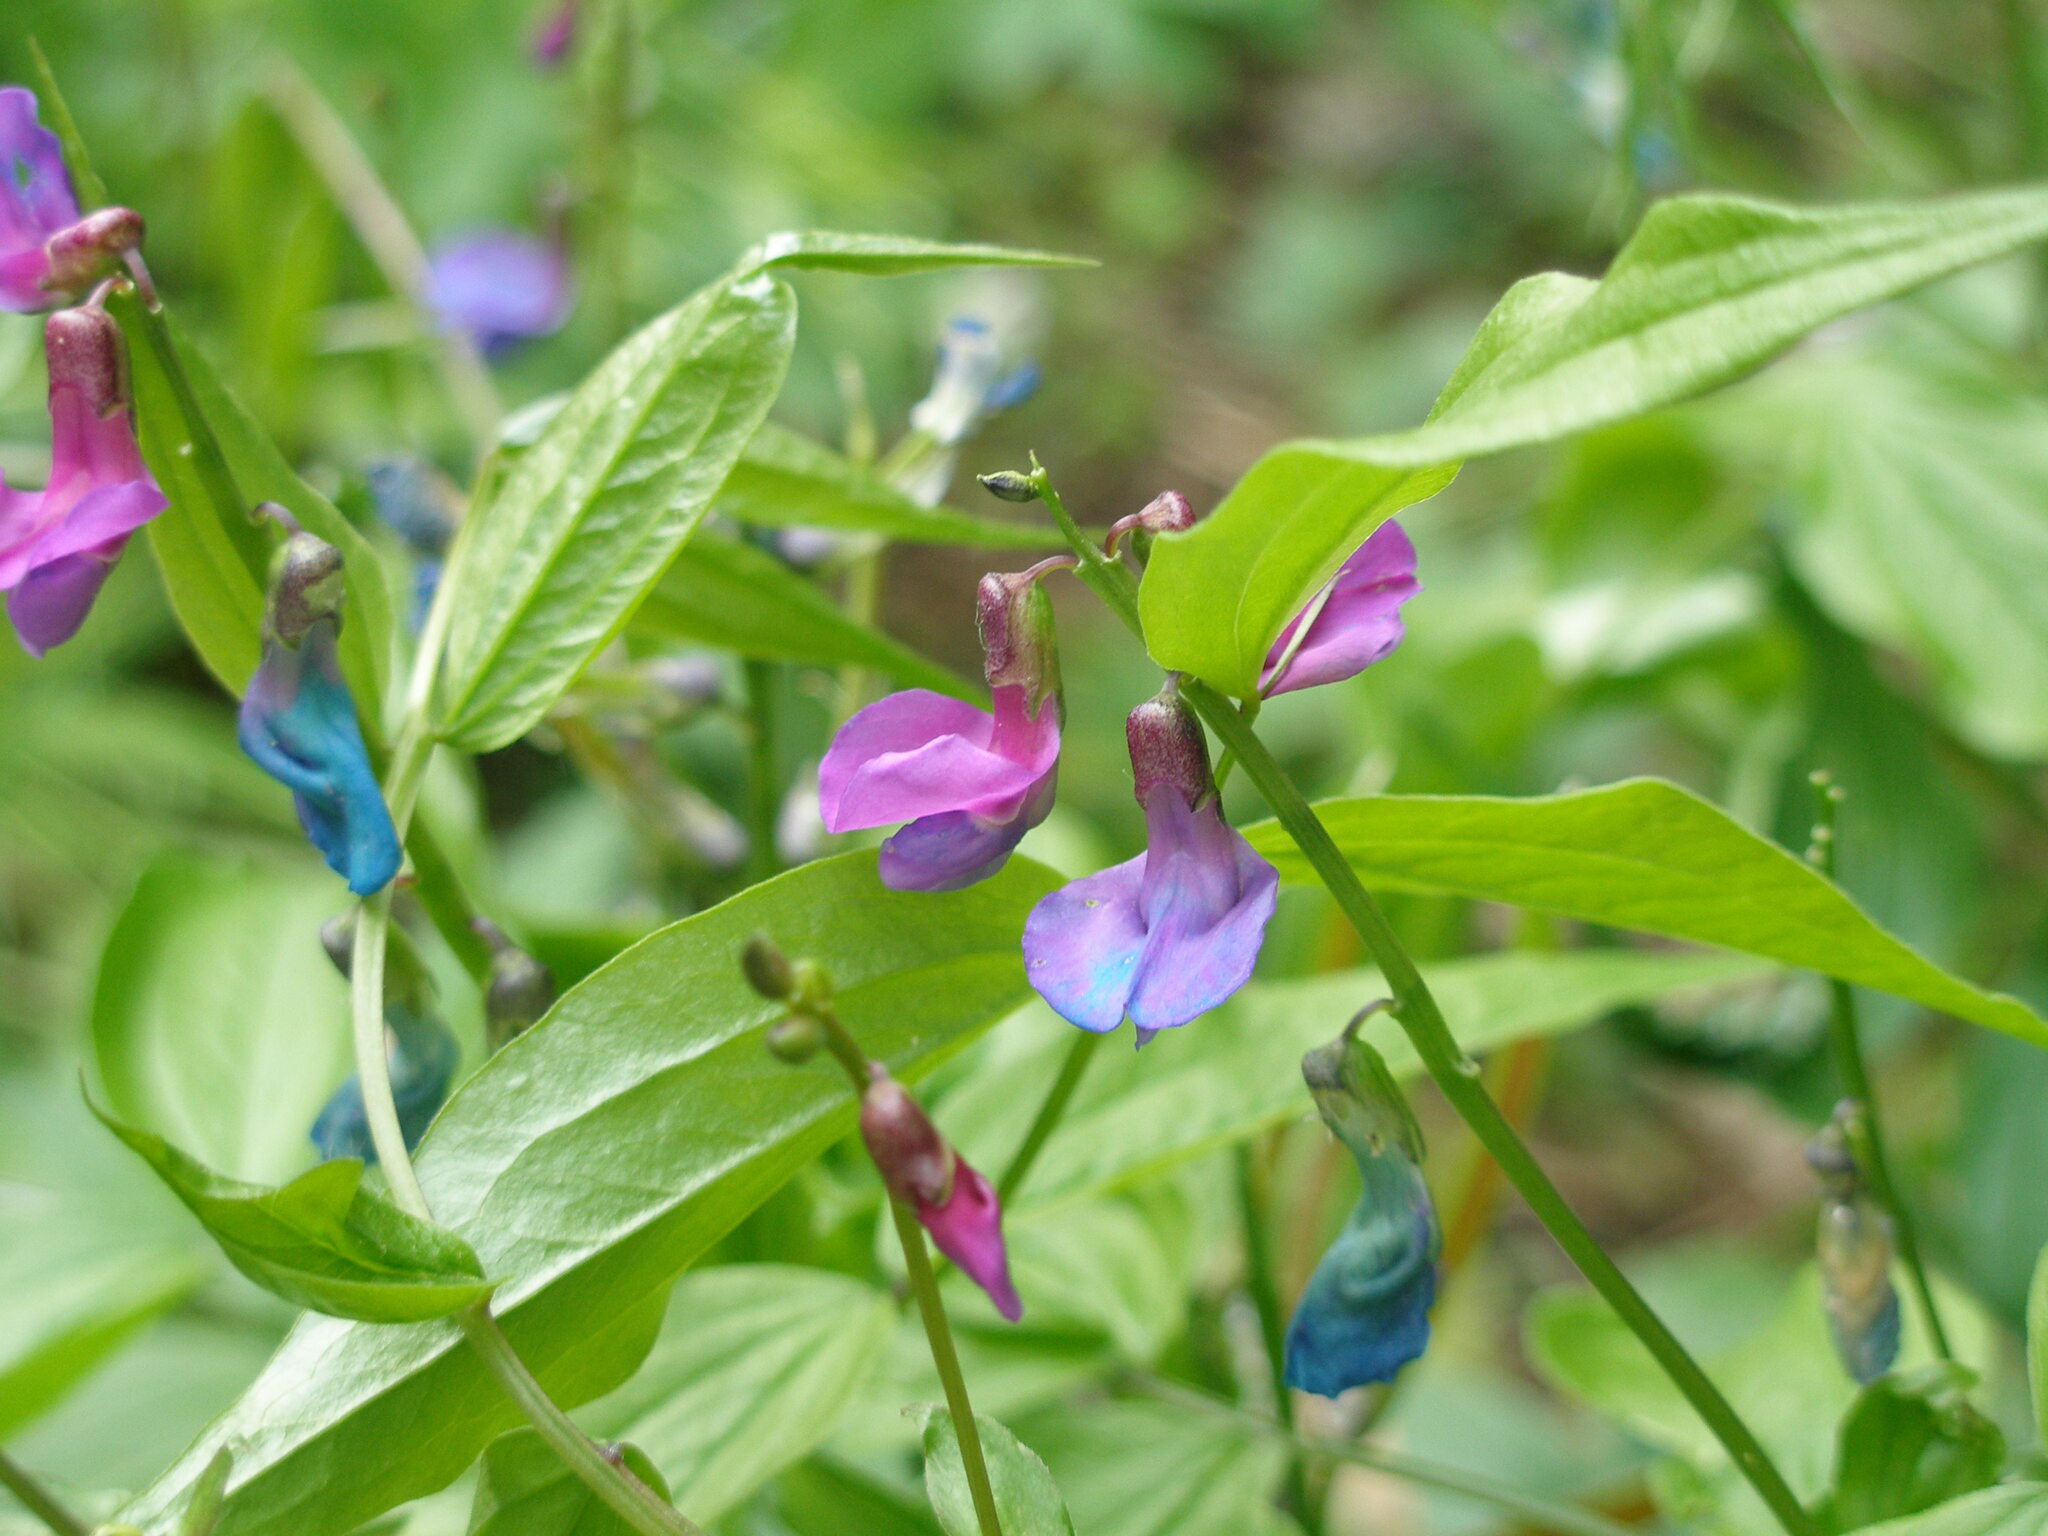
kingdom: Plantae
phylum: Tracheophyta
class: Magnoliopsida
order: Fabales
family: Fabaceae
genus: Lathyrus
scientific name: Lathyrus vernus
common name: Spring pea
